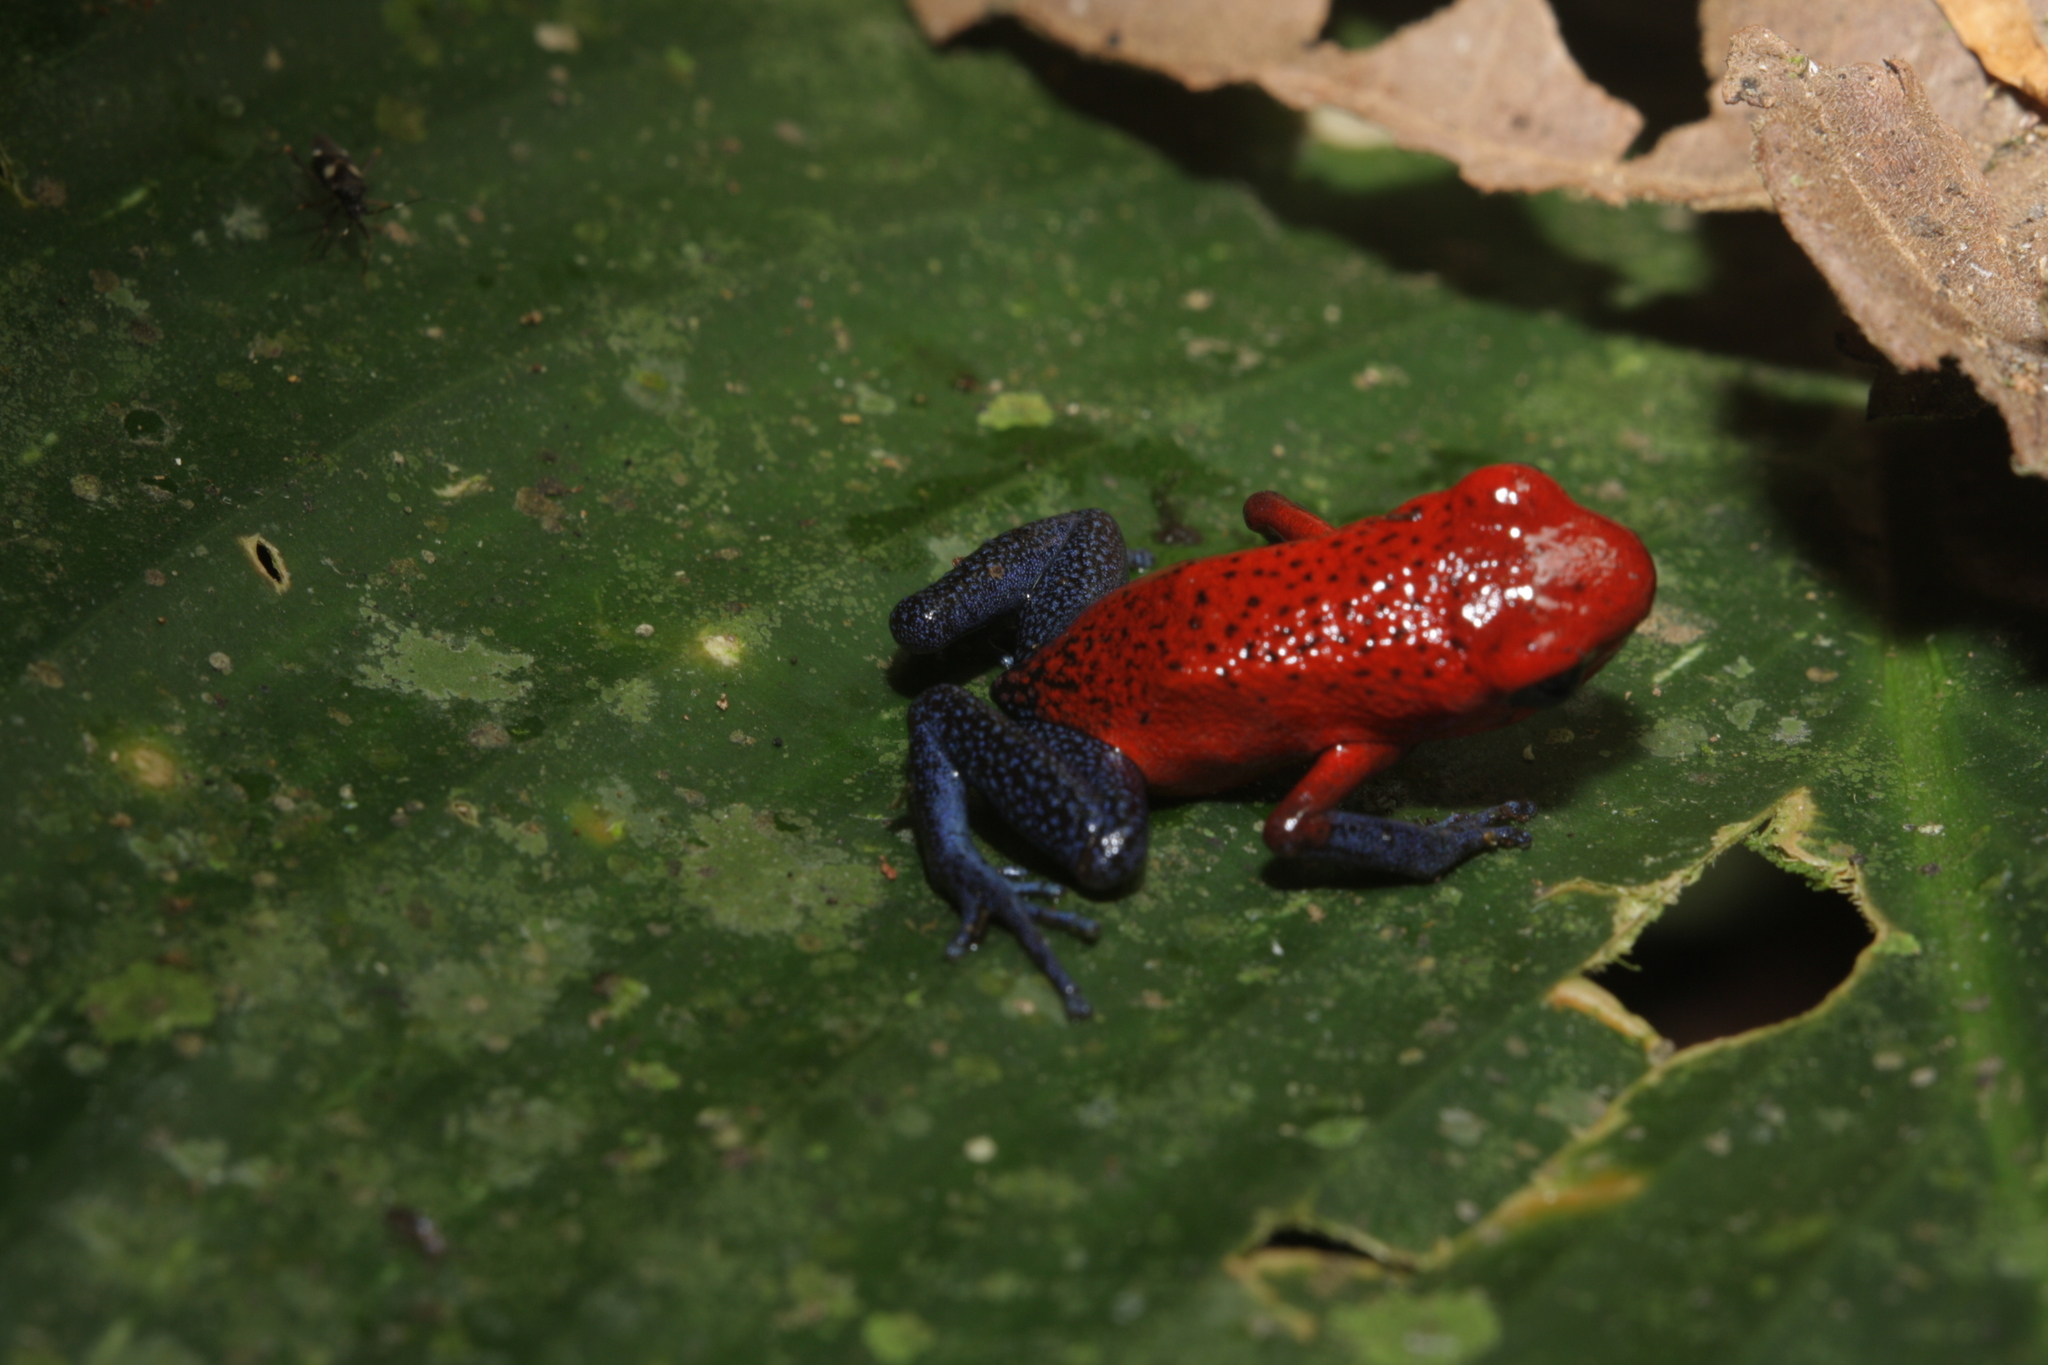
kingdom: Animalia
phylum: Chordata
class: Amphibia
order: Anura
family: Dendrobatidae
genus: Oophaga
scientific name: Oophaga pumilio
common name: Flaming poison frog
